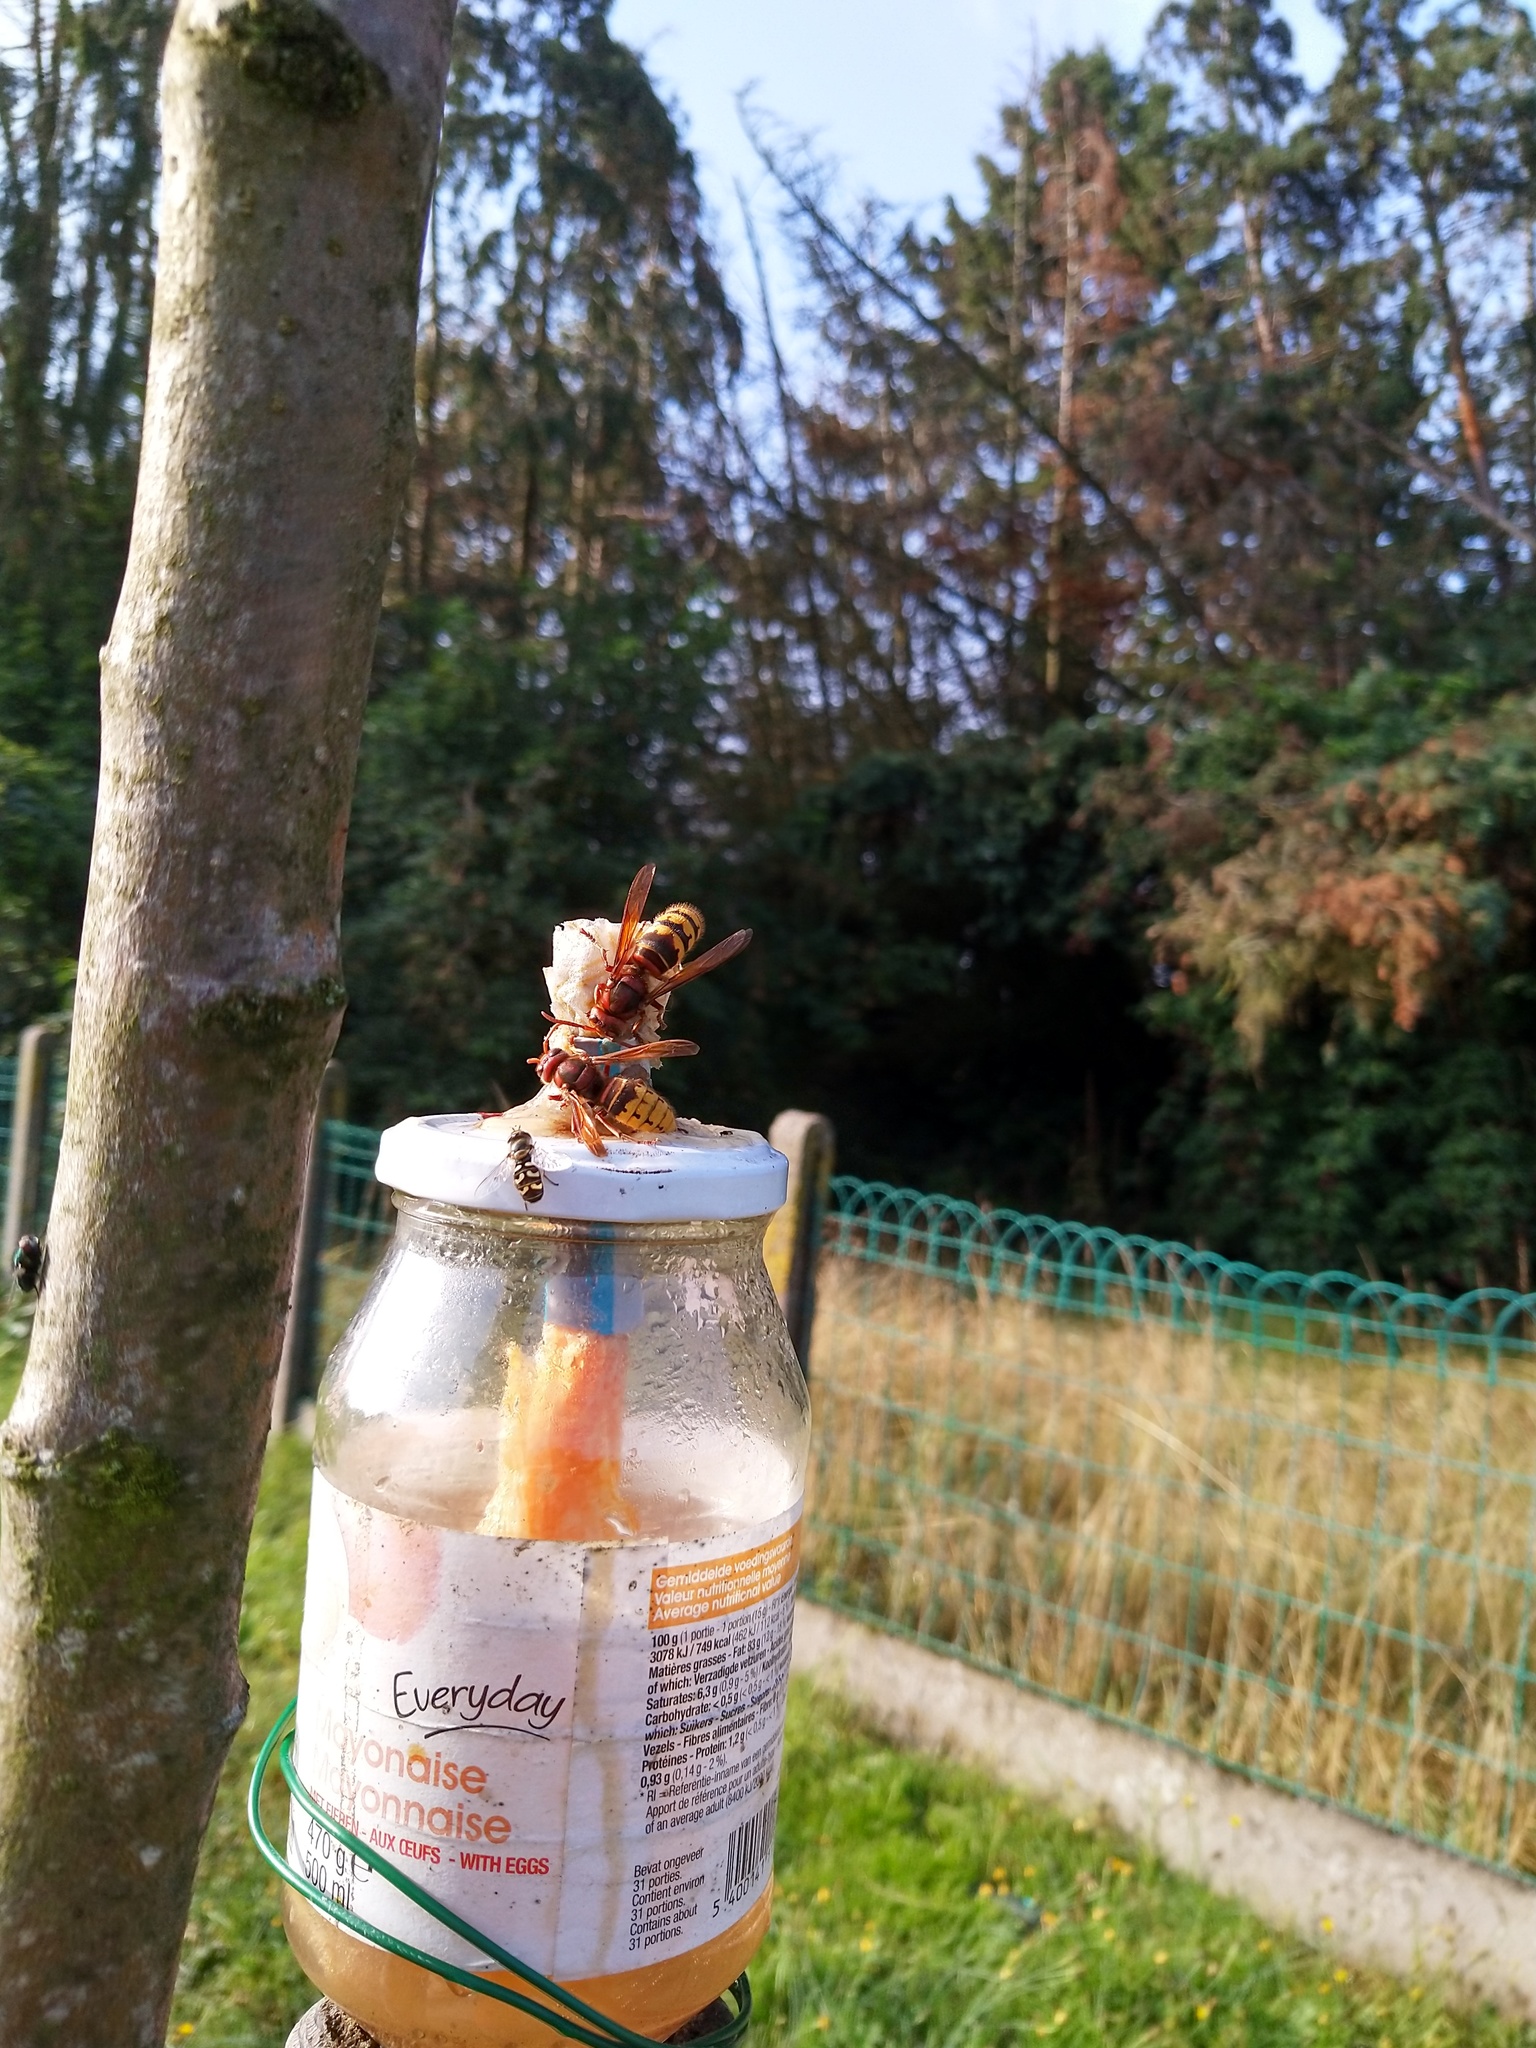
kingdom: Animalia
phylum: Arthropoda
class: Insecta
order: Hymenoptera
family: Vespidae
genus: Vespa
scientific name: Vespa crabro
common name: Hornet
